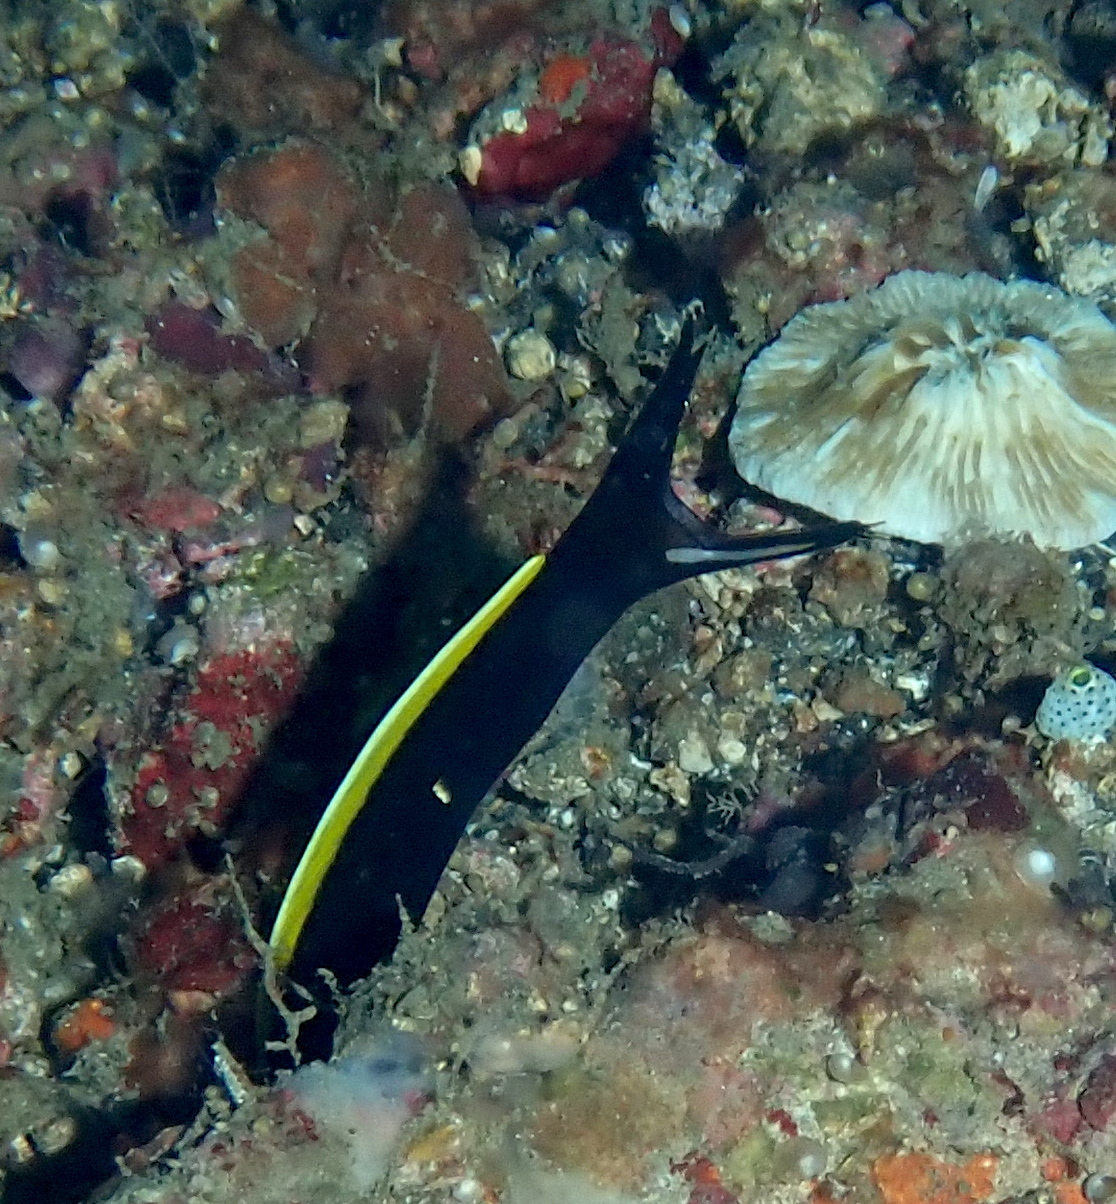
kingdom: Animalia
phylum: Chordata
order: Anguilliformes
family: Muraenidae
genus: Rhinomuraena
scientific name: Rhinomuraena quaesita
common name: Ribbon eel
